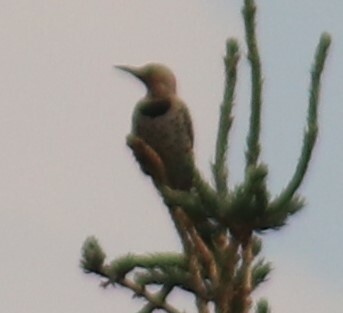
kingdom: Animalia
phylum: Chordata
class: Aves
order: Piciformes
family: Picidae
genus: Colaptes
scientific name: Colaptes auratus
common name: Northern flicker
